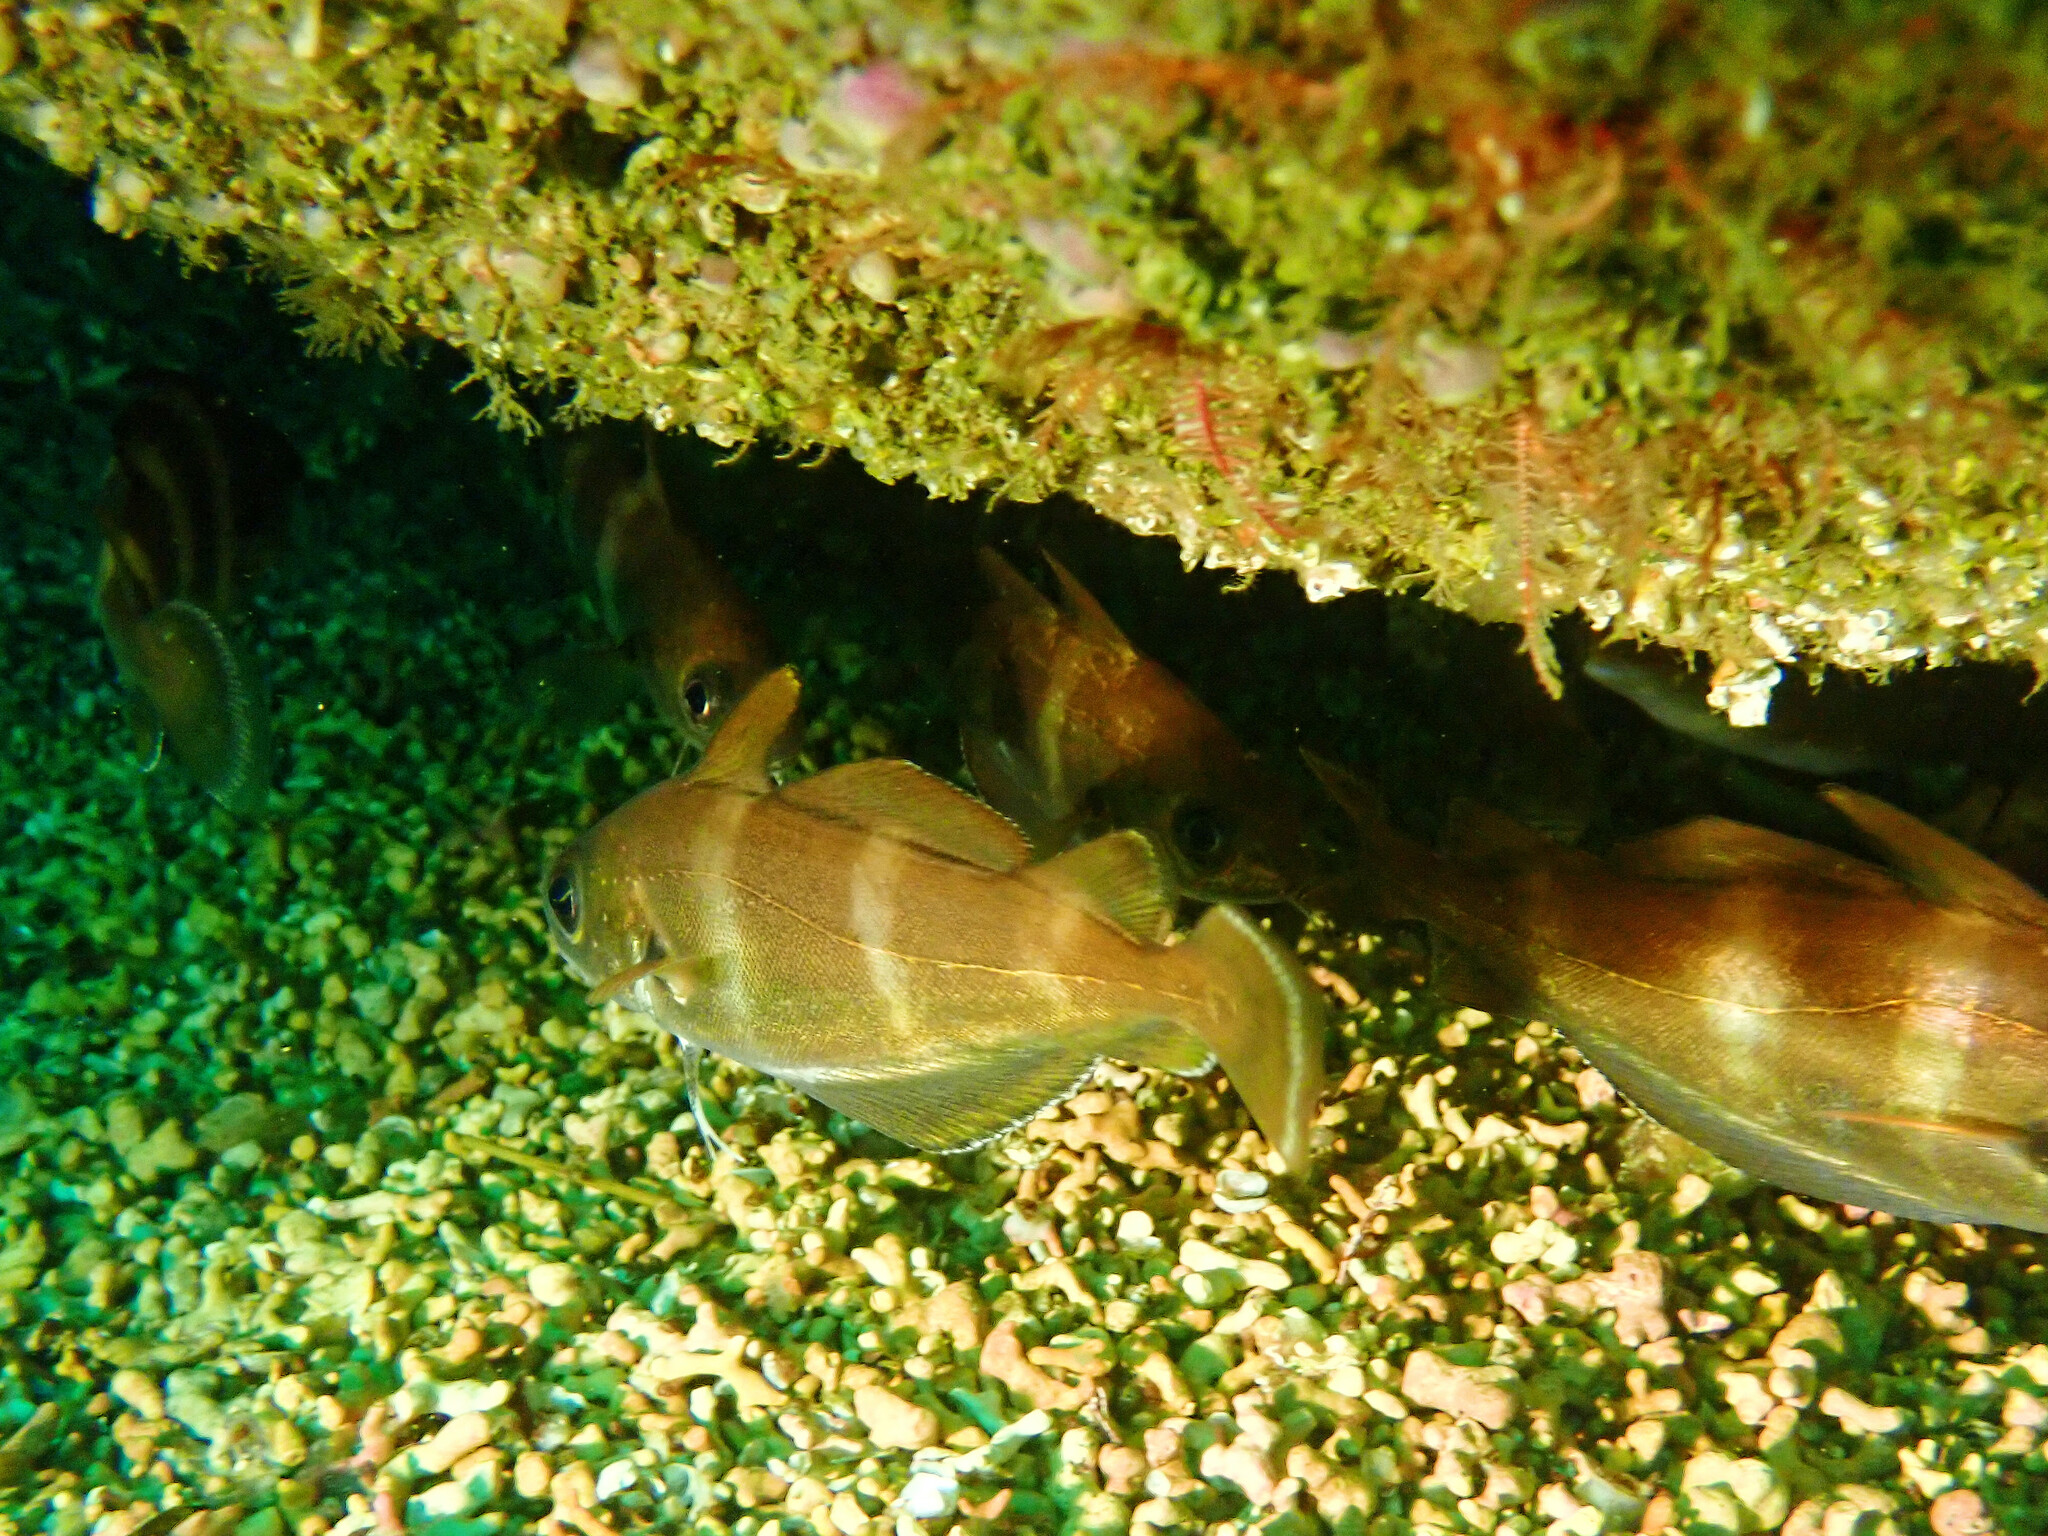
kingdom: Animalia
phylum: Chordata
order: Gadiformes
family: Gadidae
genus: Trisopterus
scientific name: Trisopterus luscus
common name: Bib
